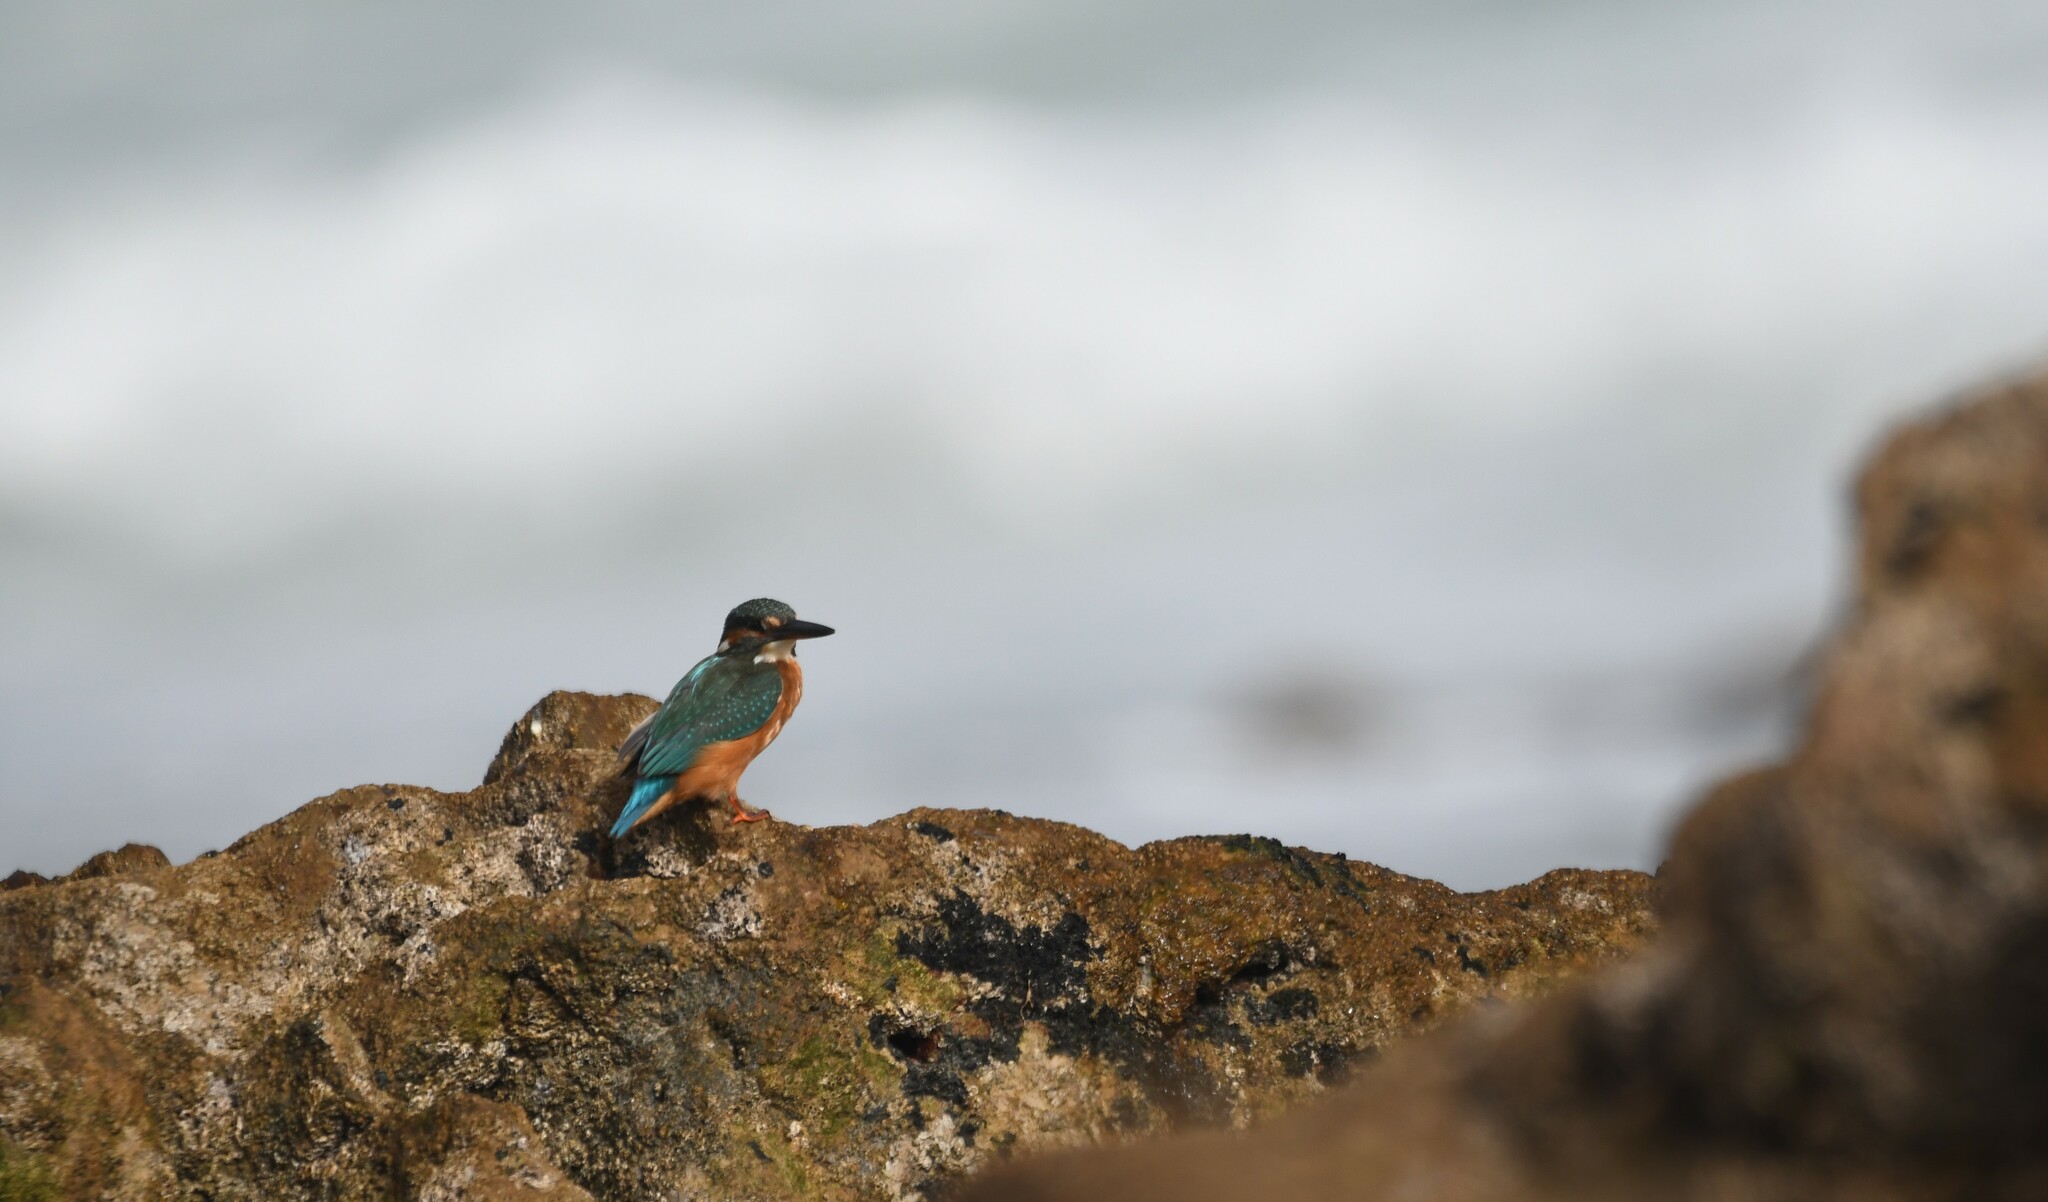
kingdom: Animalia
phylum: Chordata
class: Aves
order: Coraciiformes
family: Alcedinidae
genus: Alcedo
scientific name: Alcedo atthis
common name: Common kingfisher
